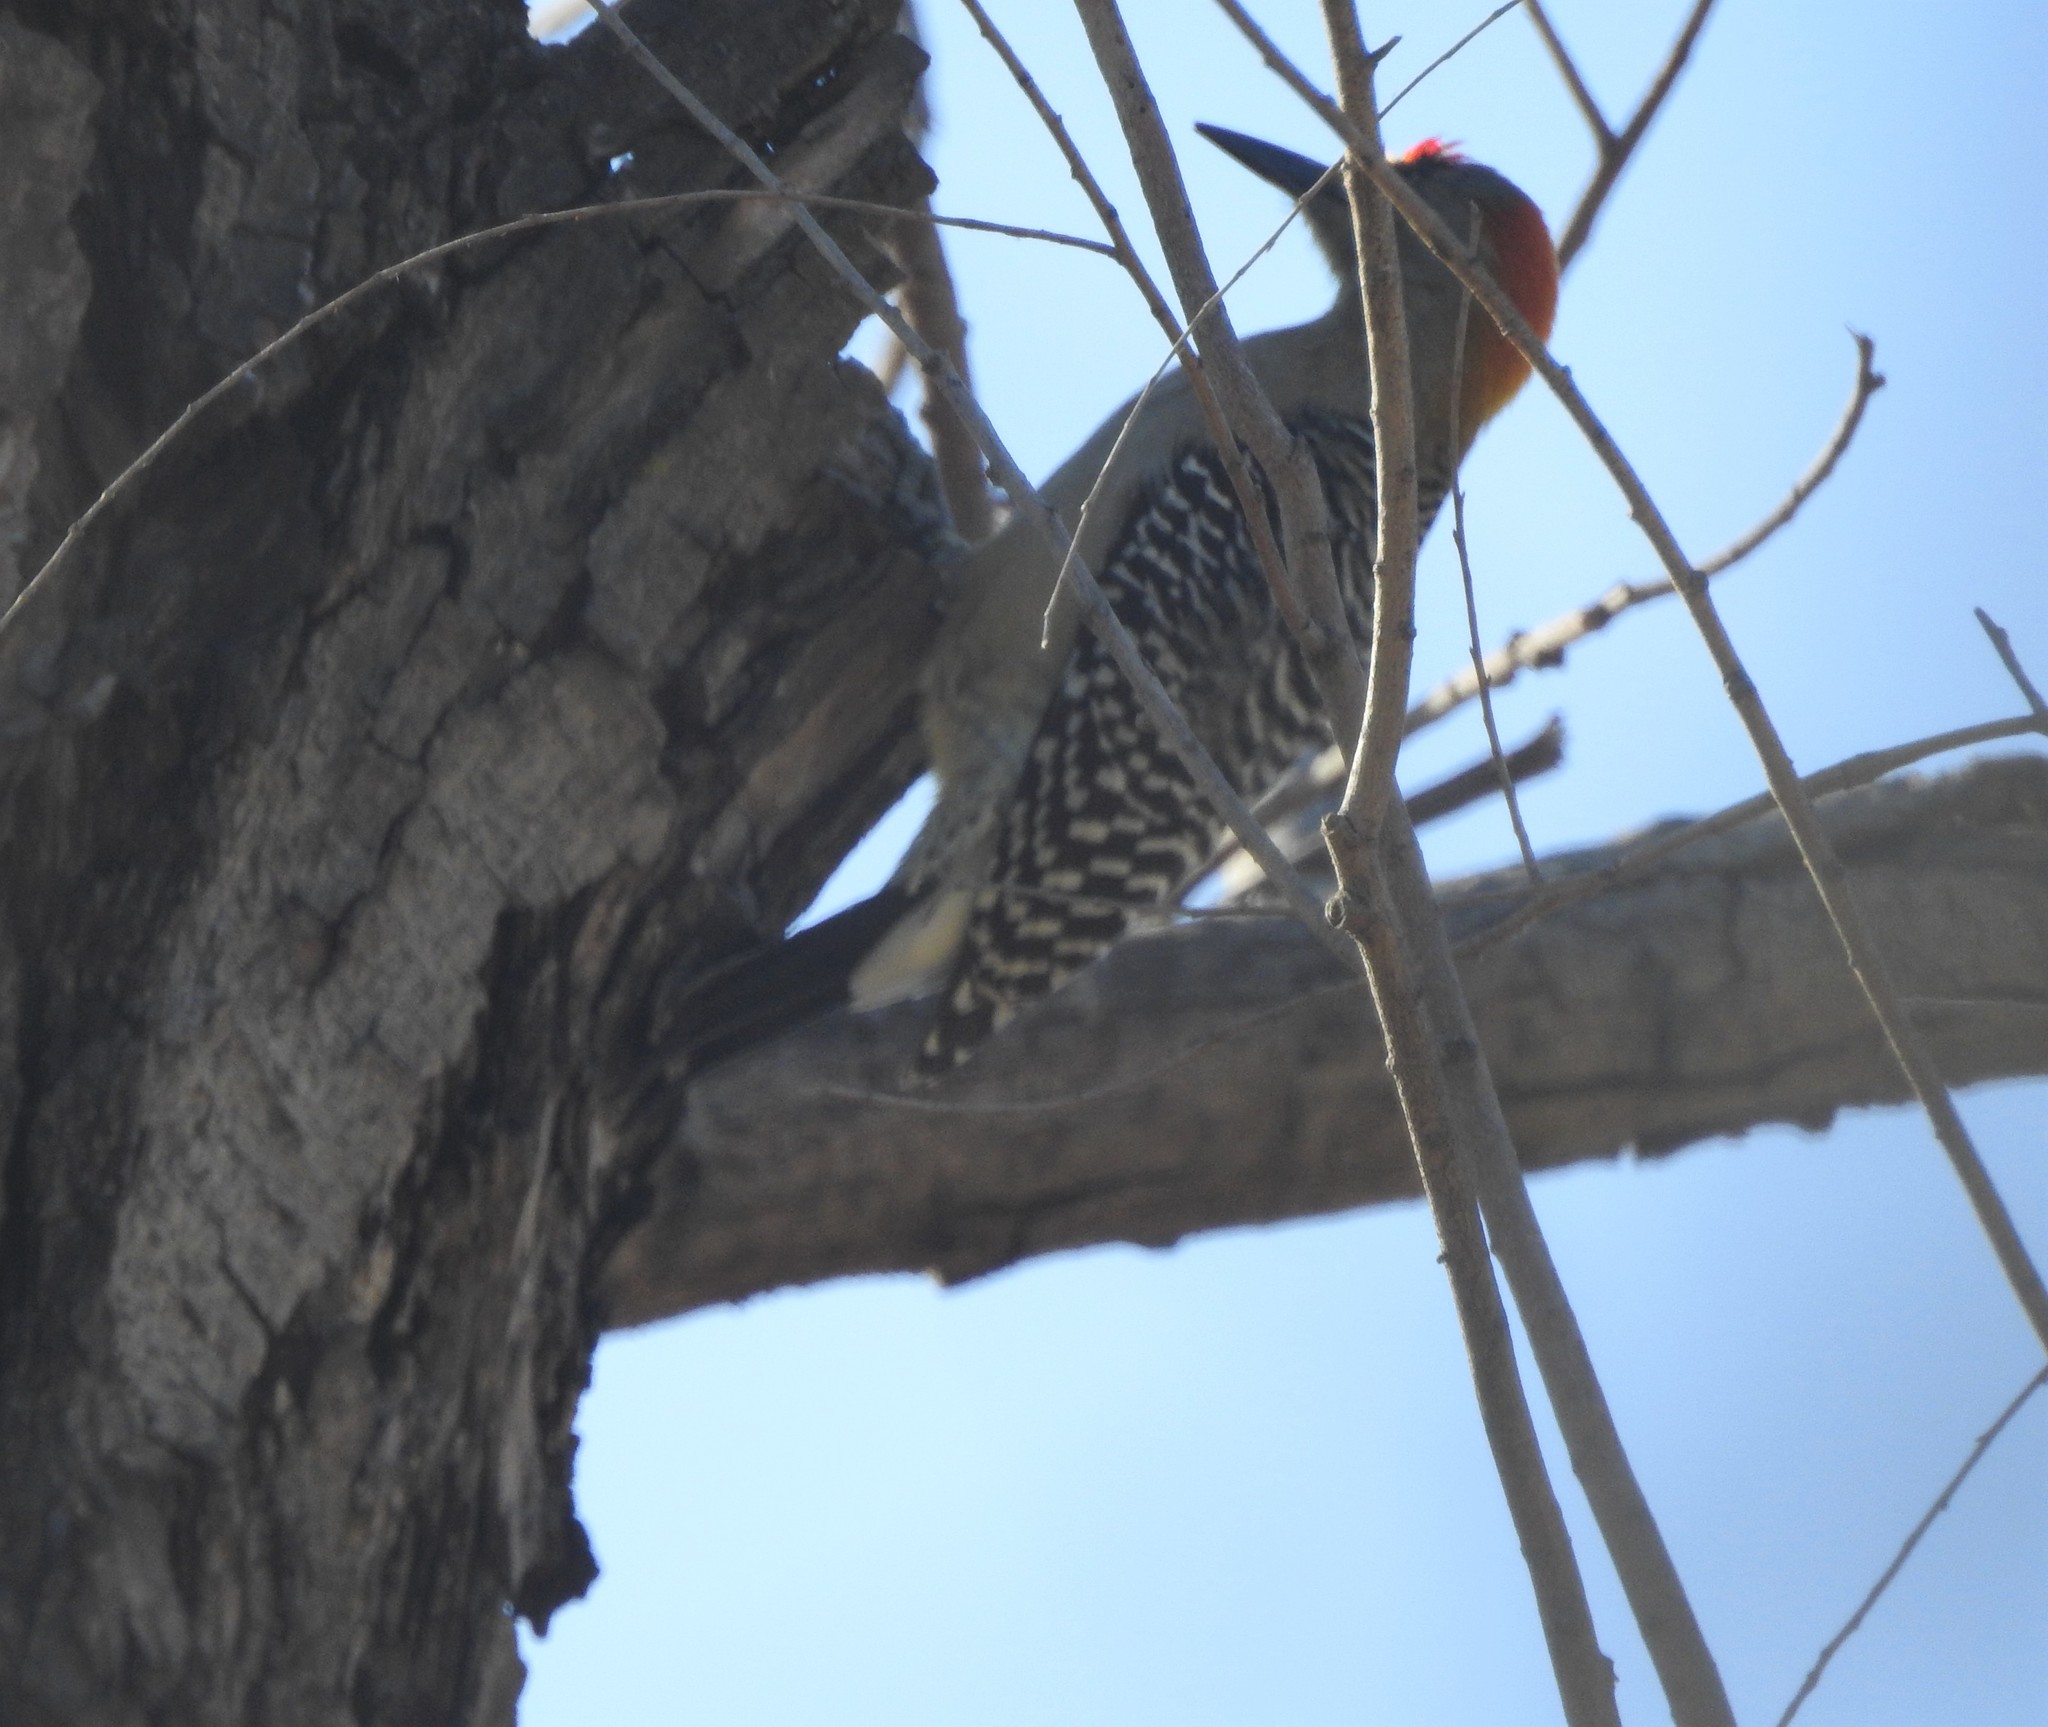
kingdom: Animalia
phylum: Chordata
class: Aves
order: Piciformes
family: Picidae
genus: Melanerpes
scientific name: Melanerpes aurifrons
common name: Golden-fronted woodpecker
